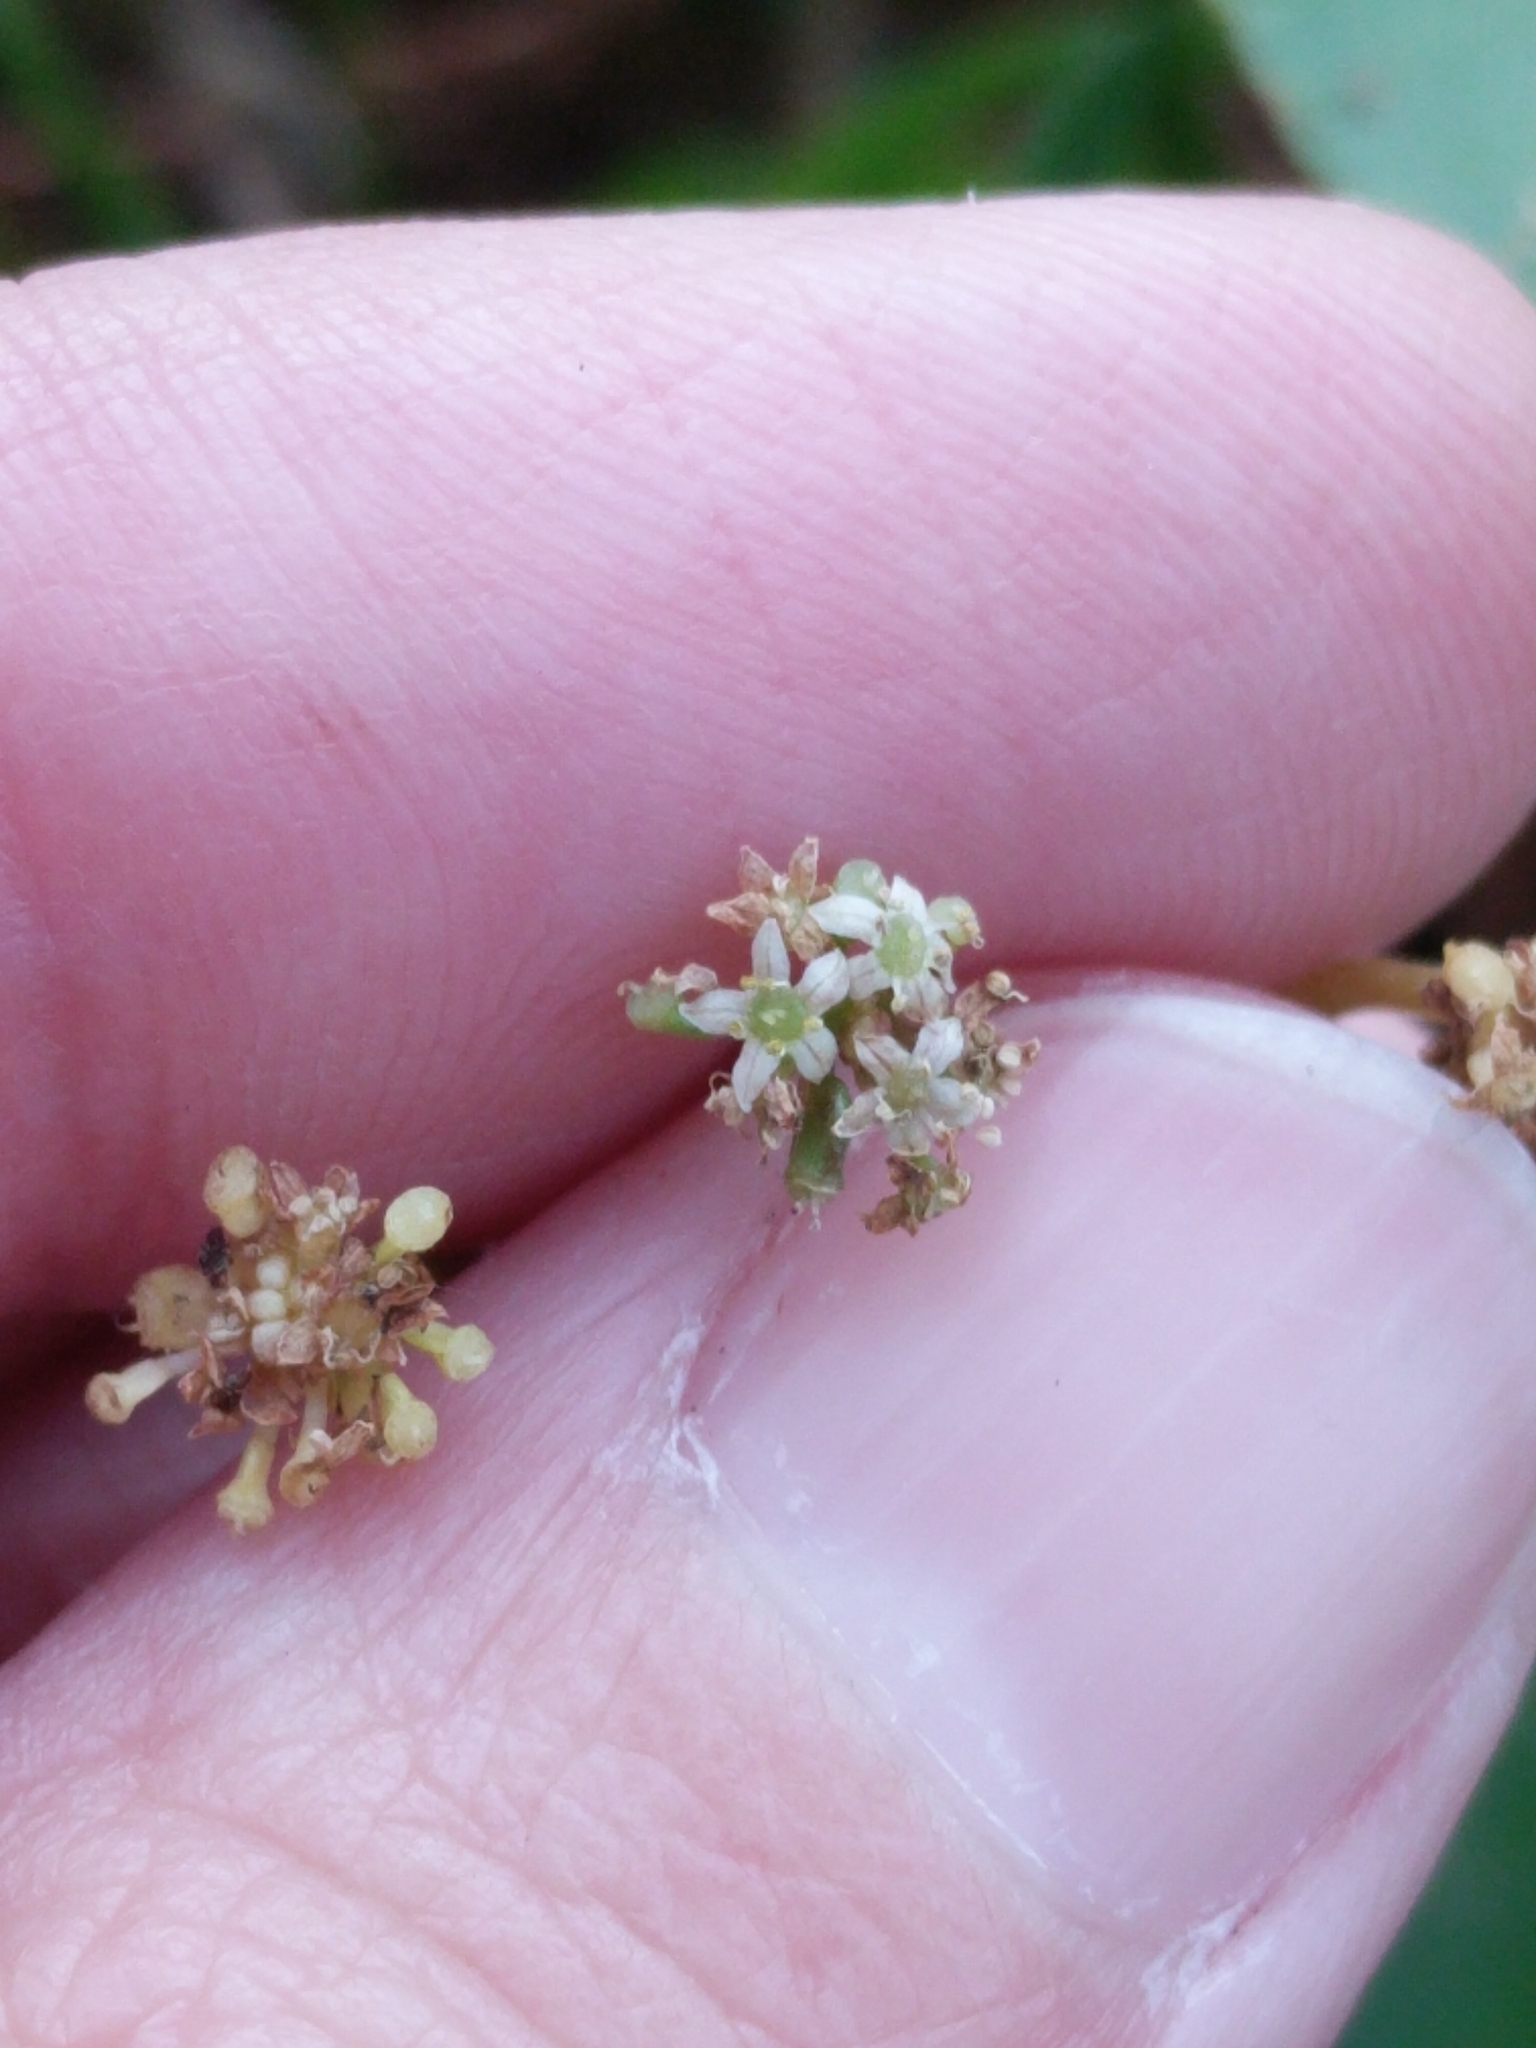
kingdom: Plantae
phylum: Tracheophyta
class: Magnoliopsida
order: Apiales
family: Araliaceae
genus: Hydrocotyle
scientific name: Hydrocotyle bonariensis
